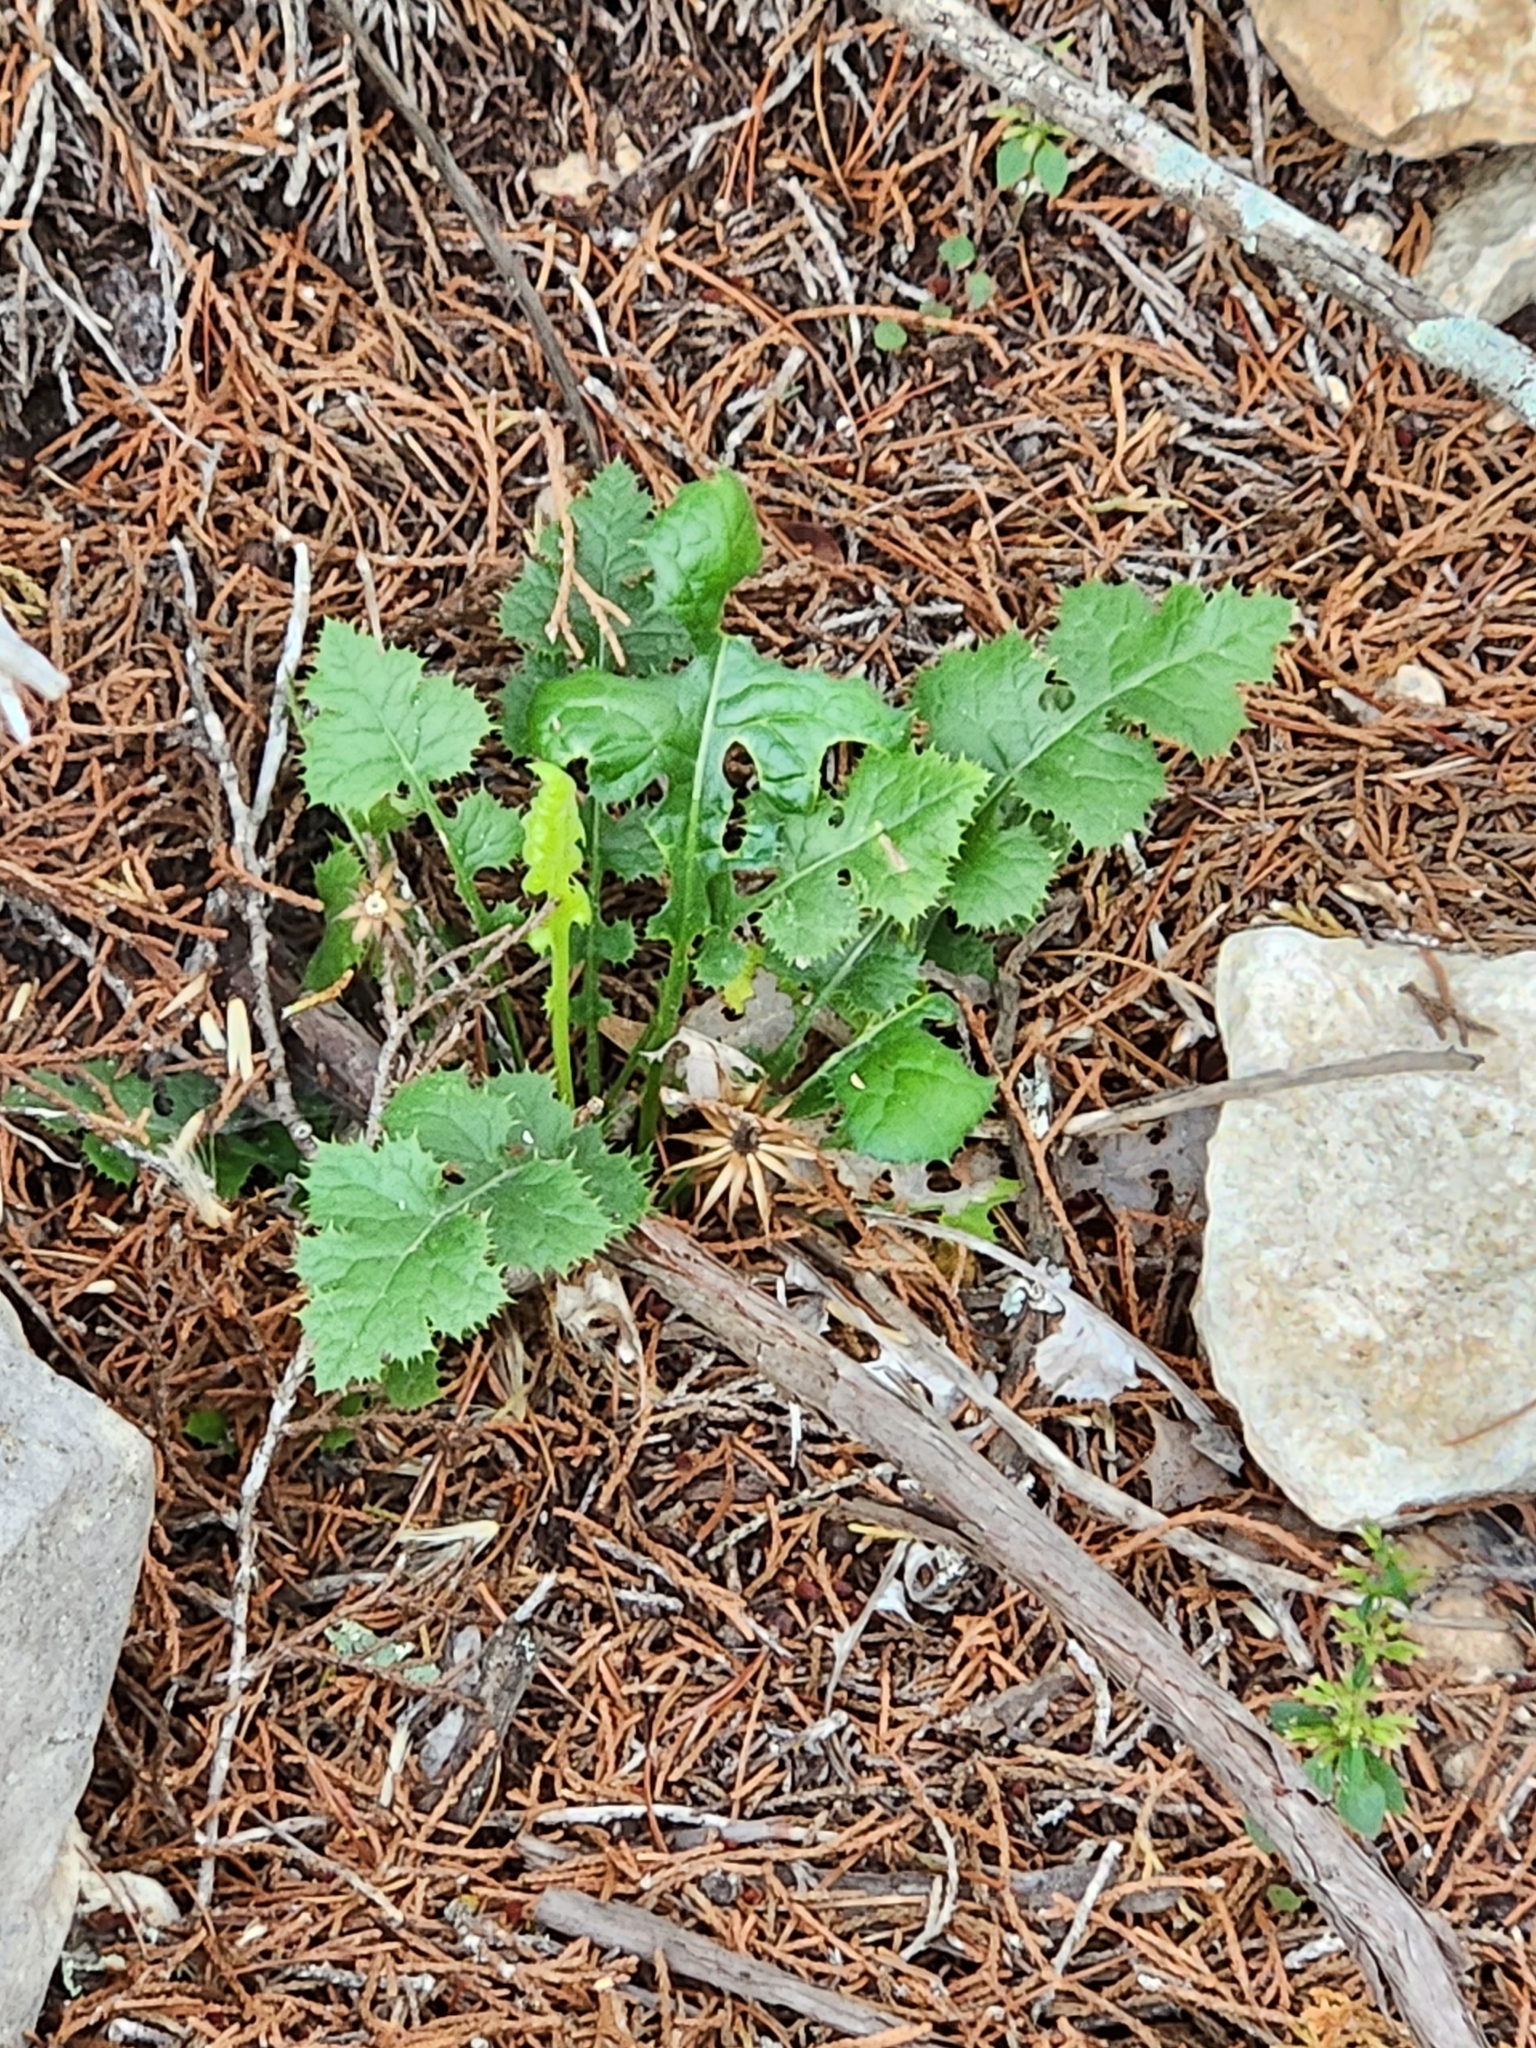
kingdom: Plantae
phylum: Tracheophyta
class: Magnoliopsida
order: Asterales
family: Asteraceae
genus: Acourtia
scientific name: Acourtia runcinata
